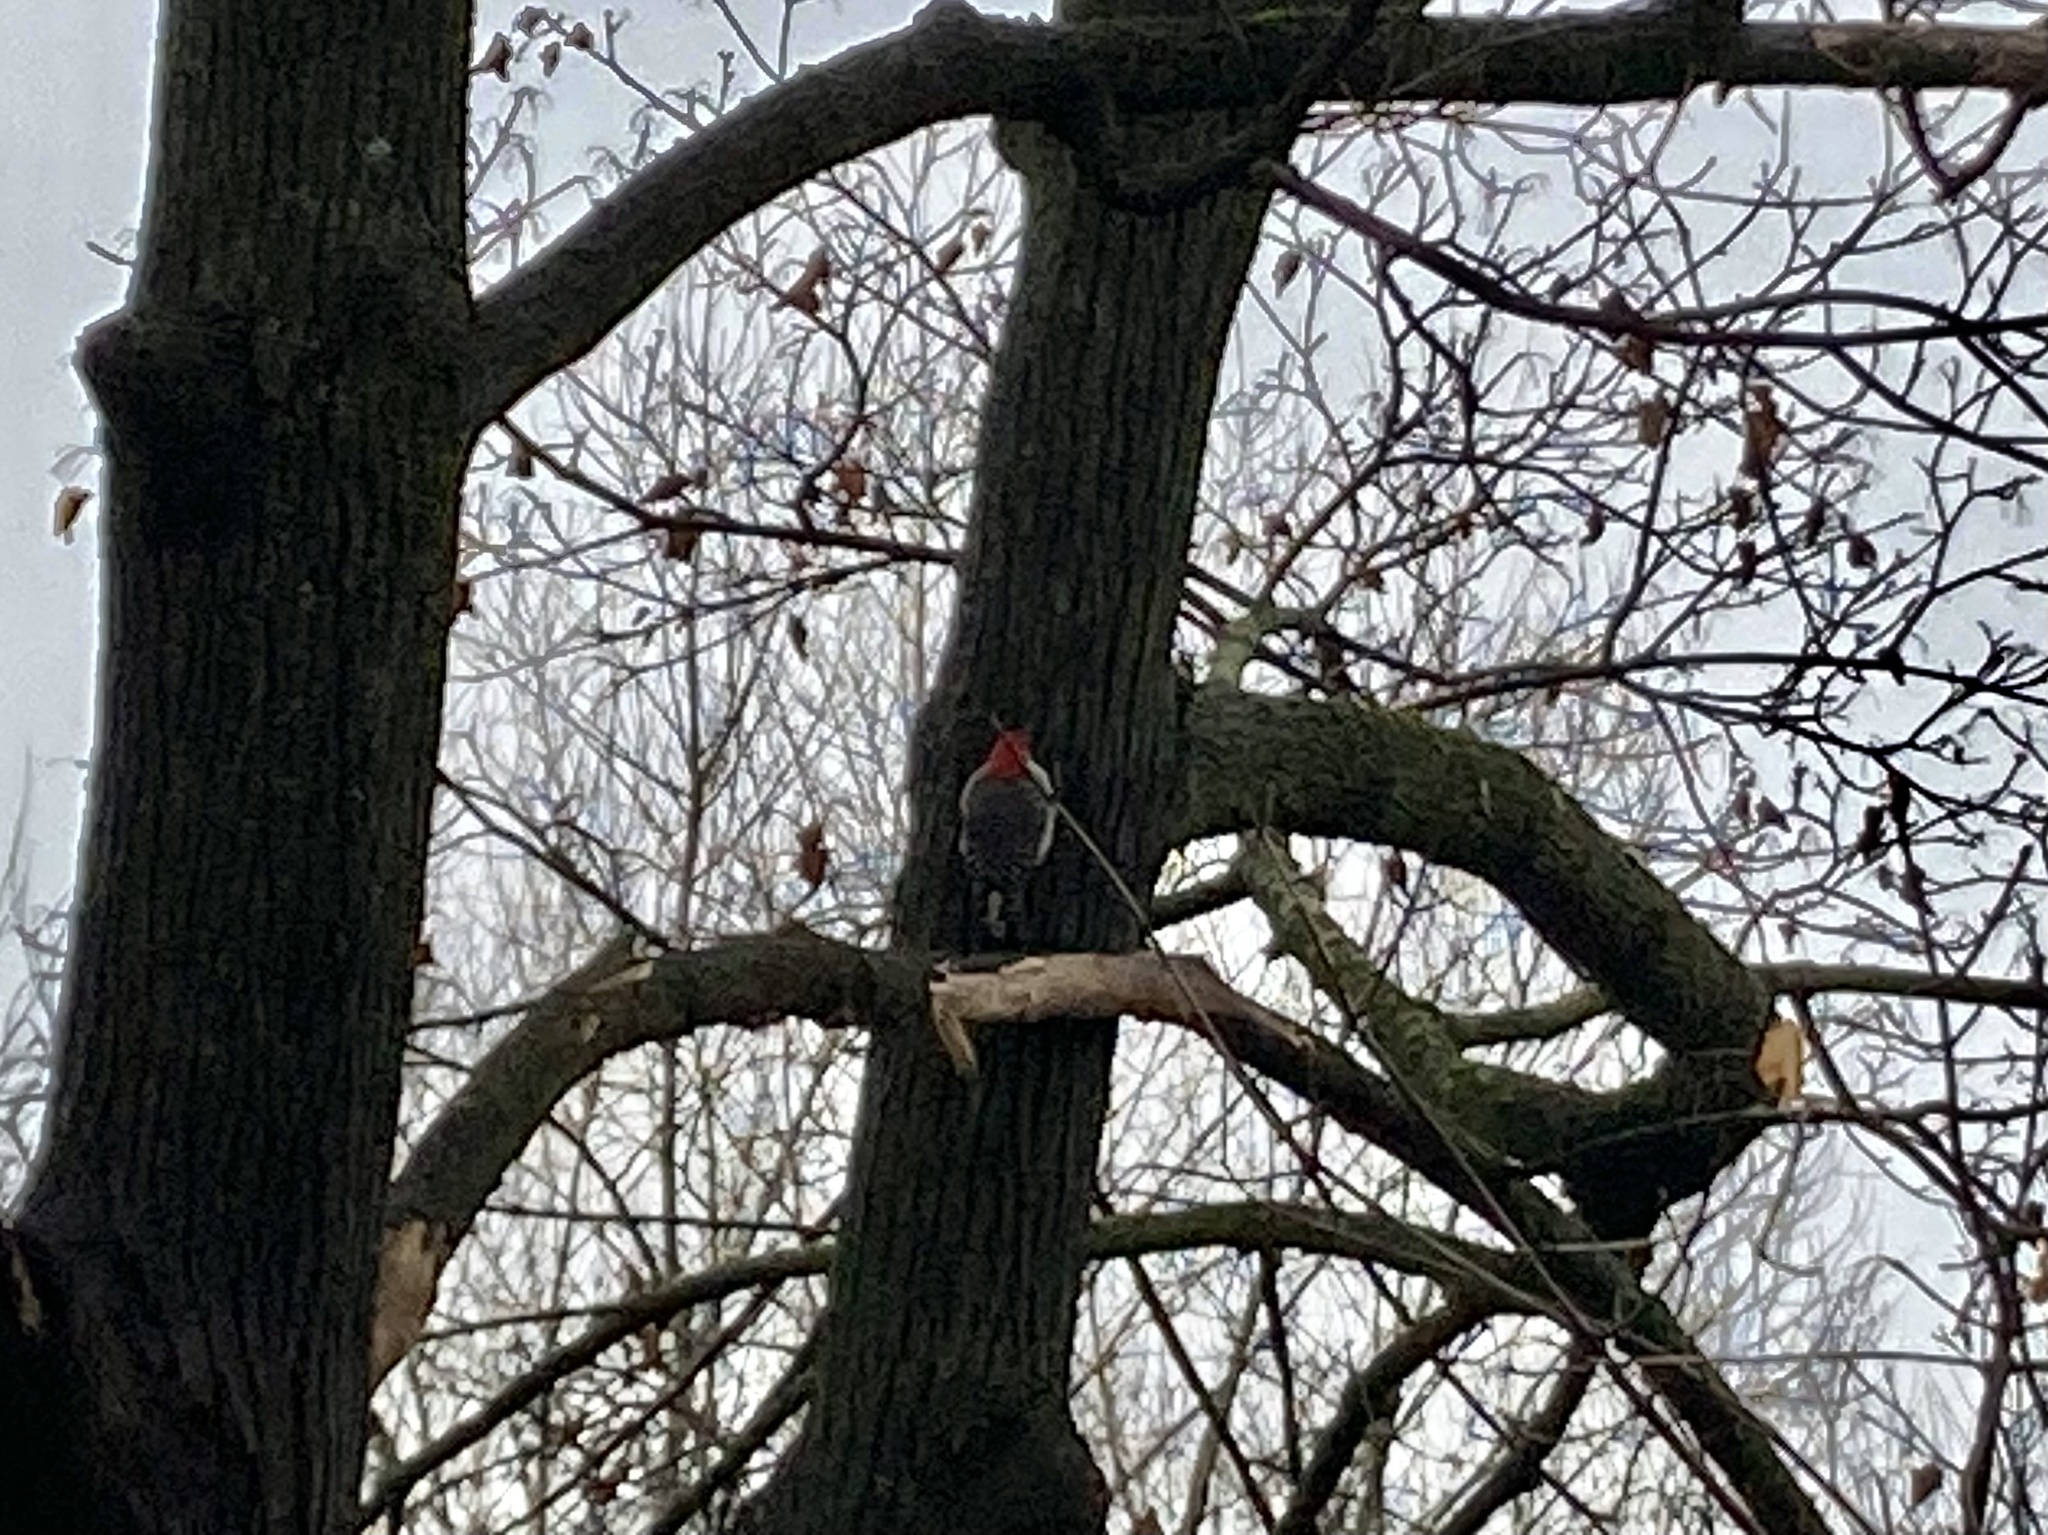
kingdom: Animalia
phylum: Chordata
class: Aves
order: Piciformes
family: Picidae
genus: Melanerpes
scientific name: Melanerpes carolinus
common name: Red-bellied woodpecker
